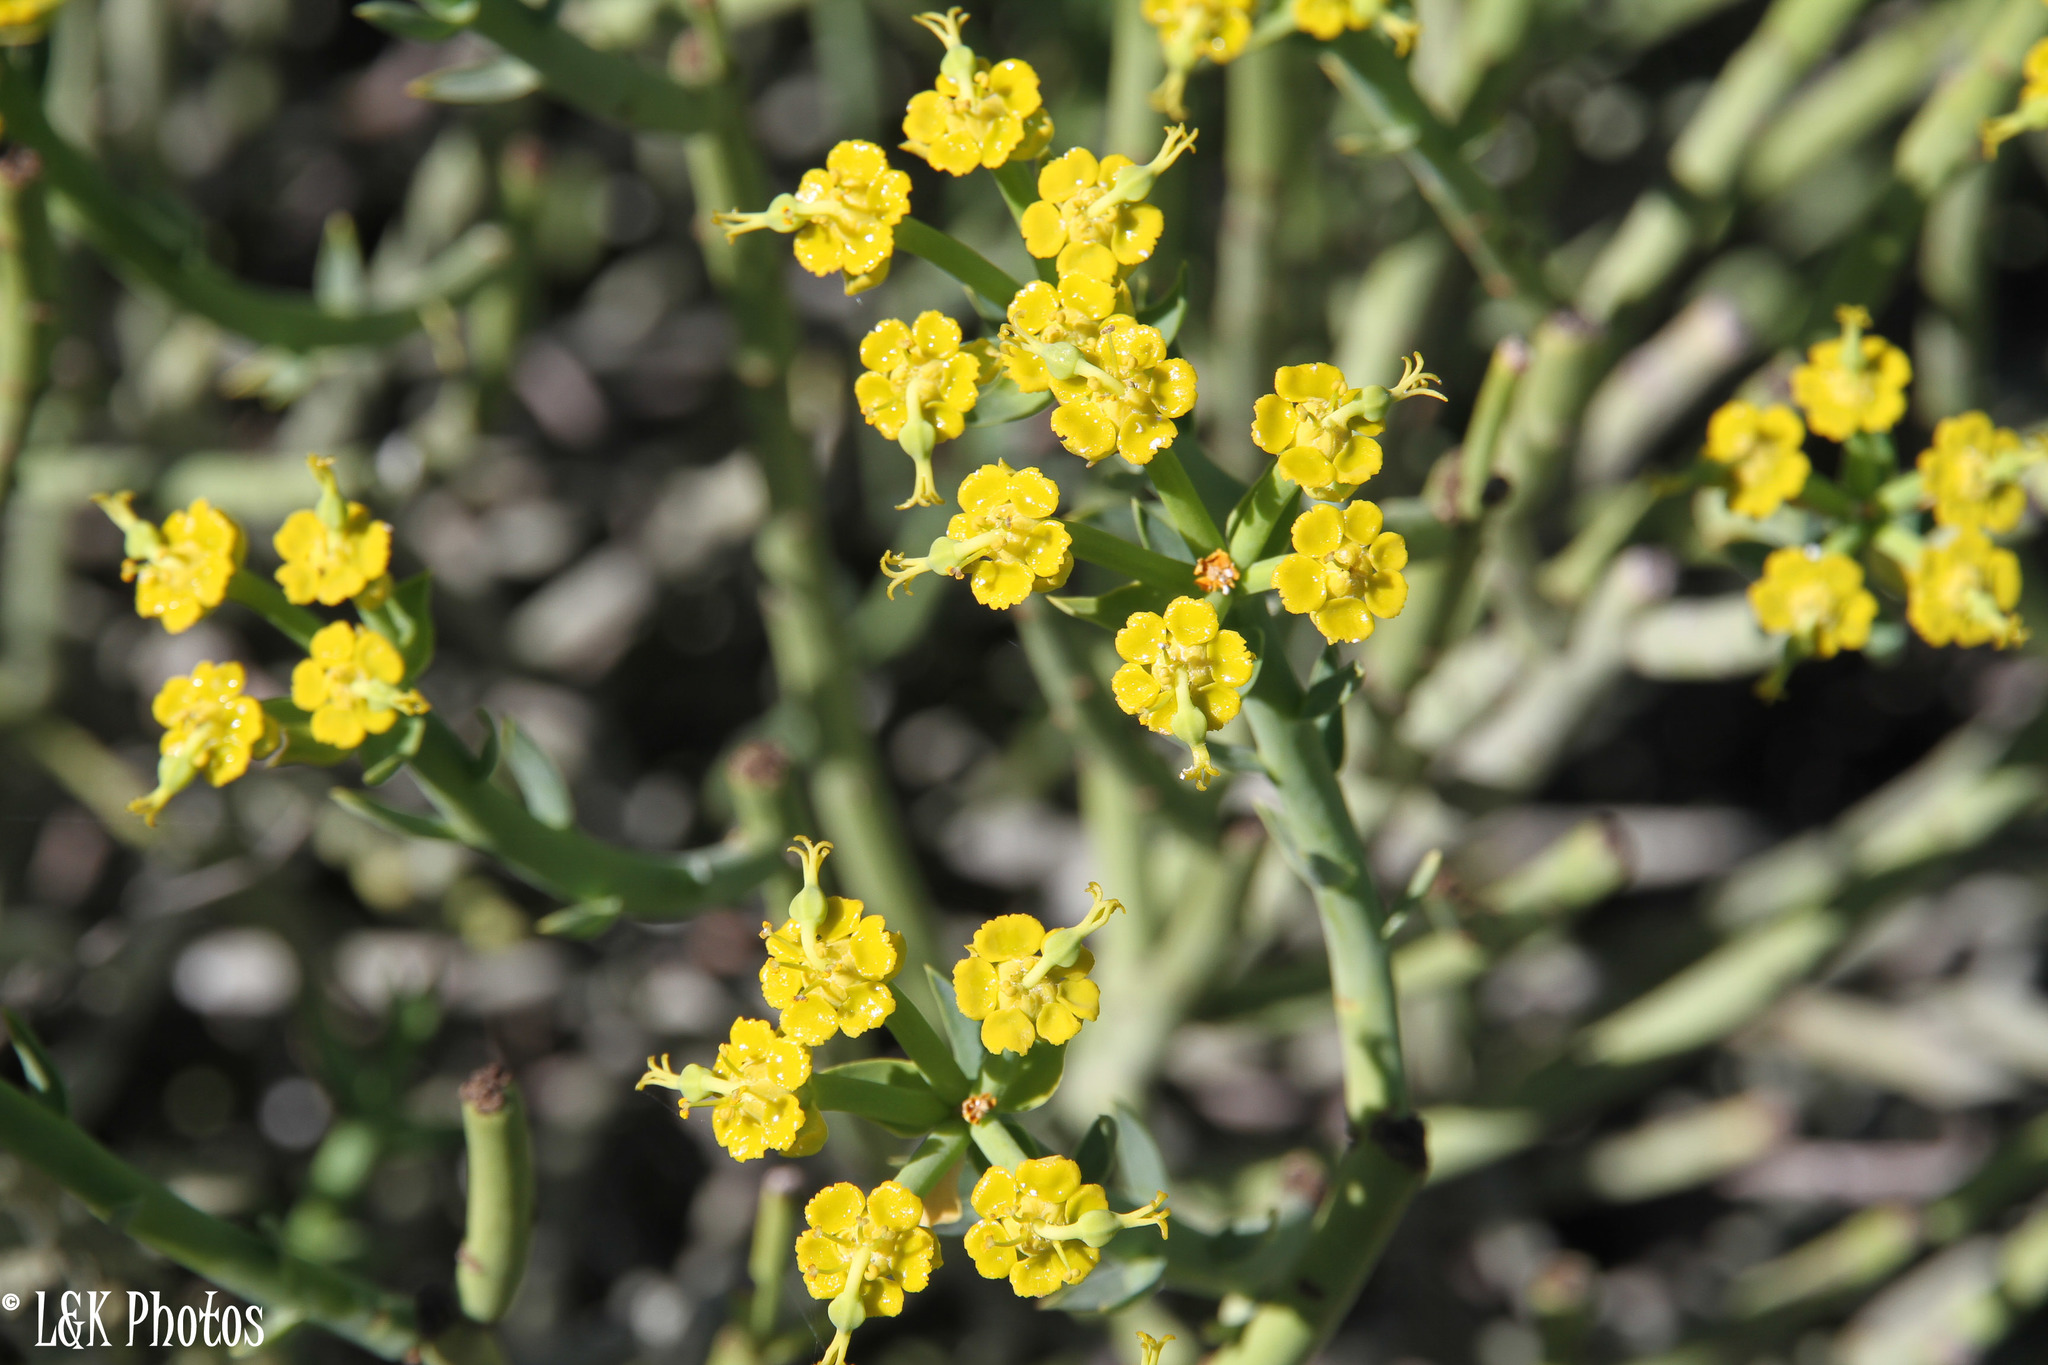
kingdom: Plantae
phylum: Tracheophyta
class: Magnoliopsida
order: Malpighiales
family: Euphorbiaceae
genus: Euphorbia
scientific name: Euphorbia mauritanica
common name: Jackal's-food
